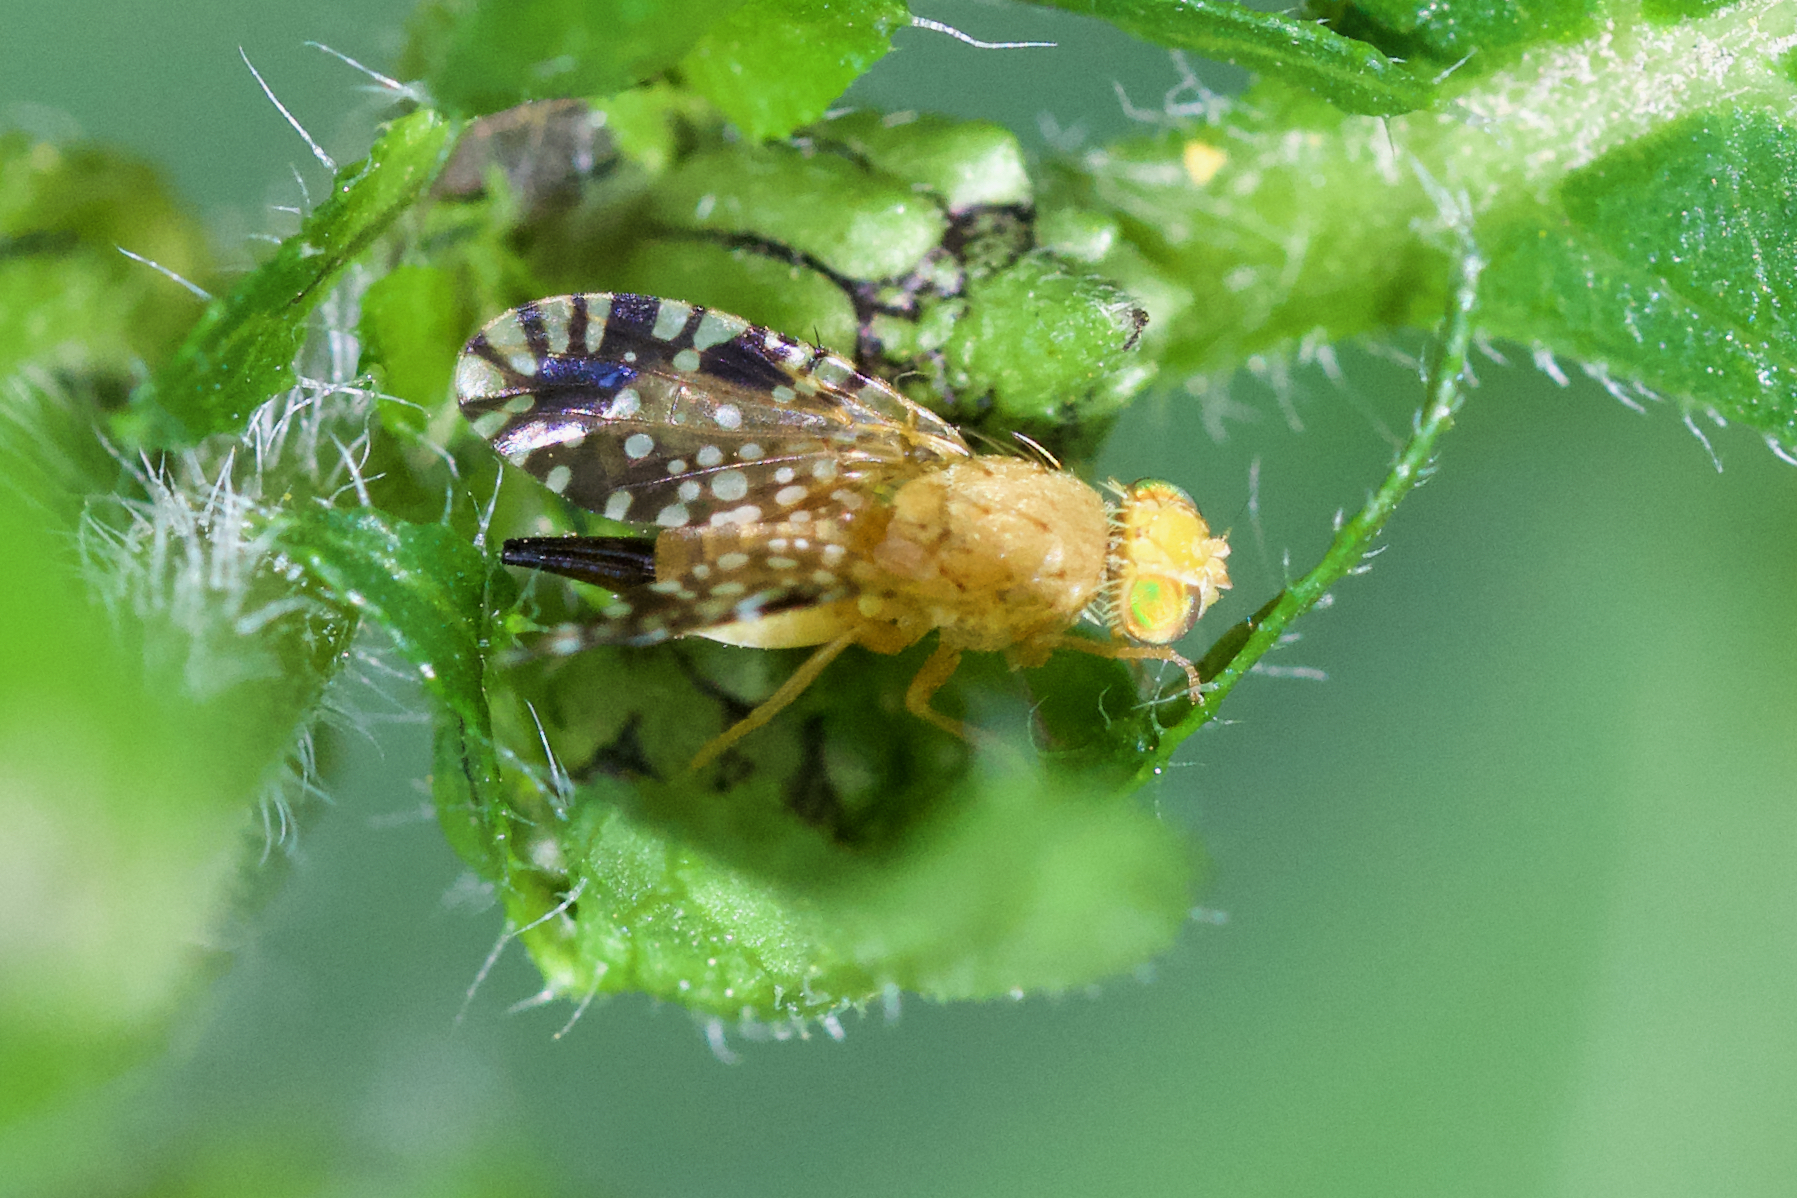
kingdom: Animalia
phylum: Arthropoda
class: Insecta
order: Diptera
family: Tephritidae
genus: Euaresta
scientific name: Euaresta festiva
